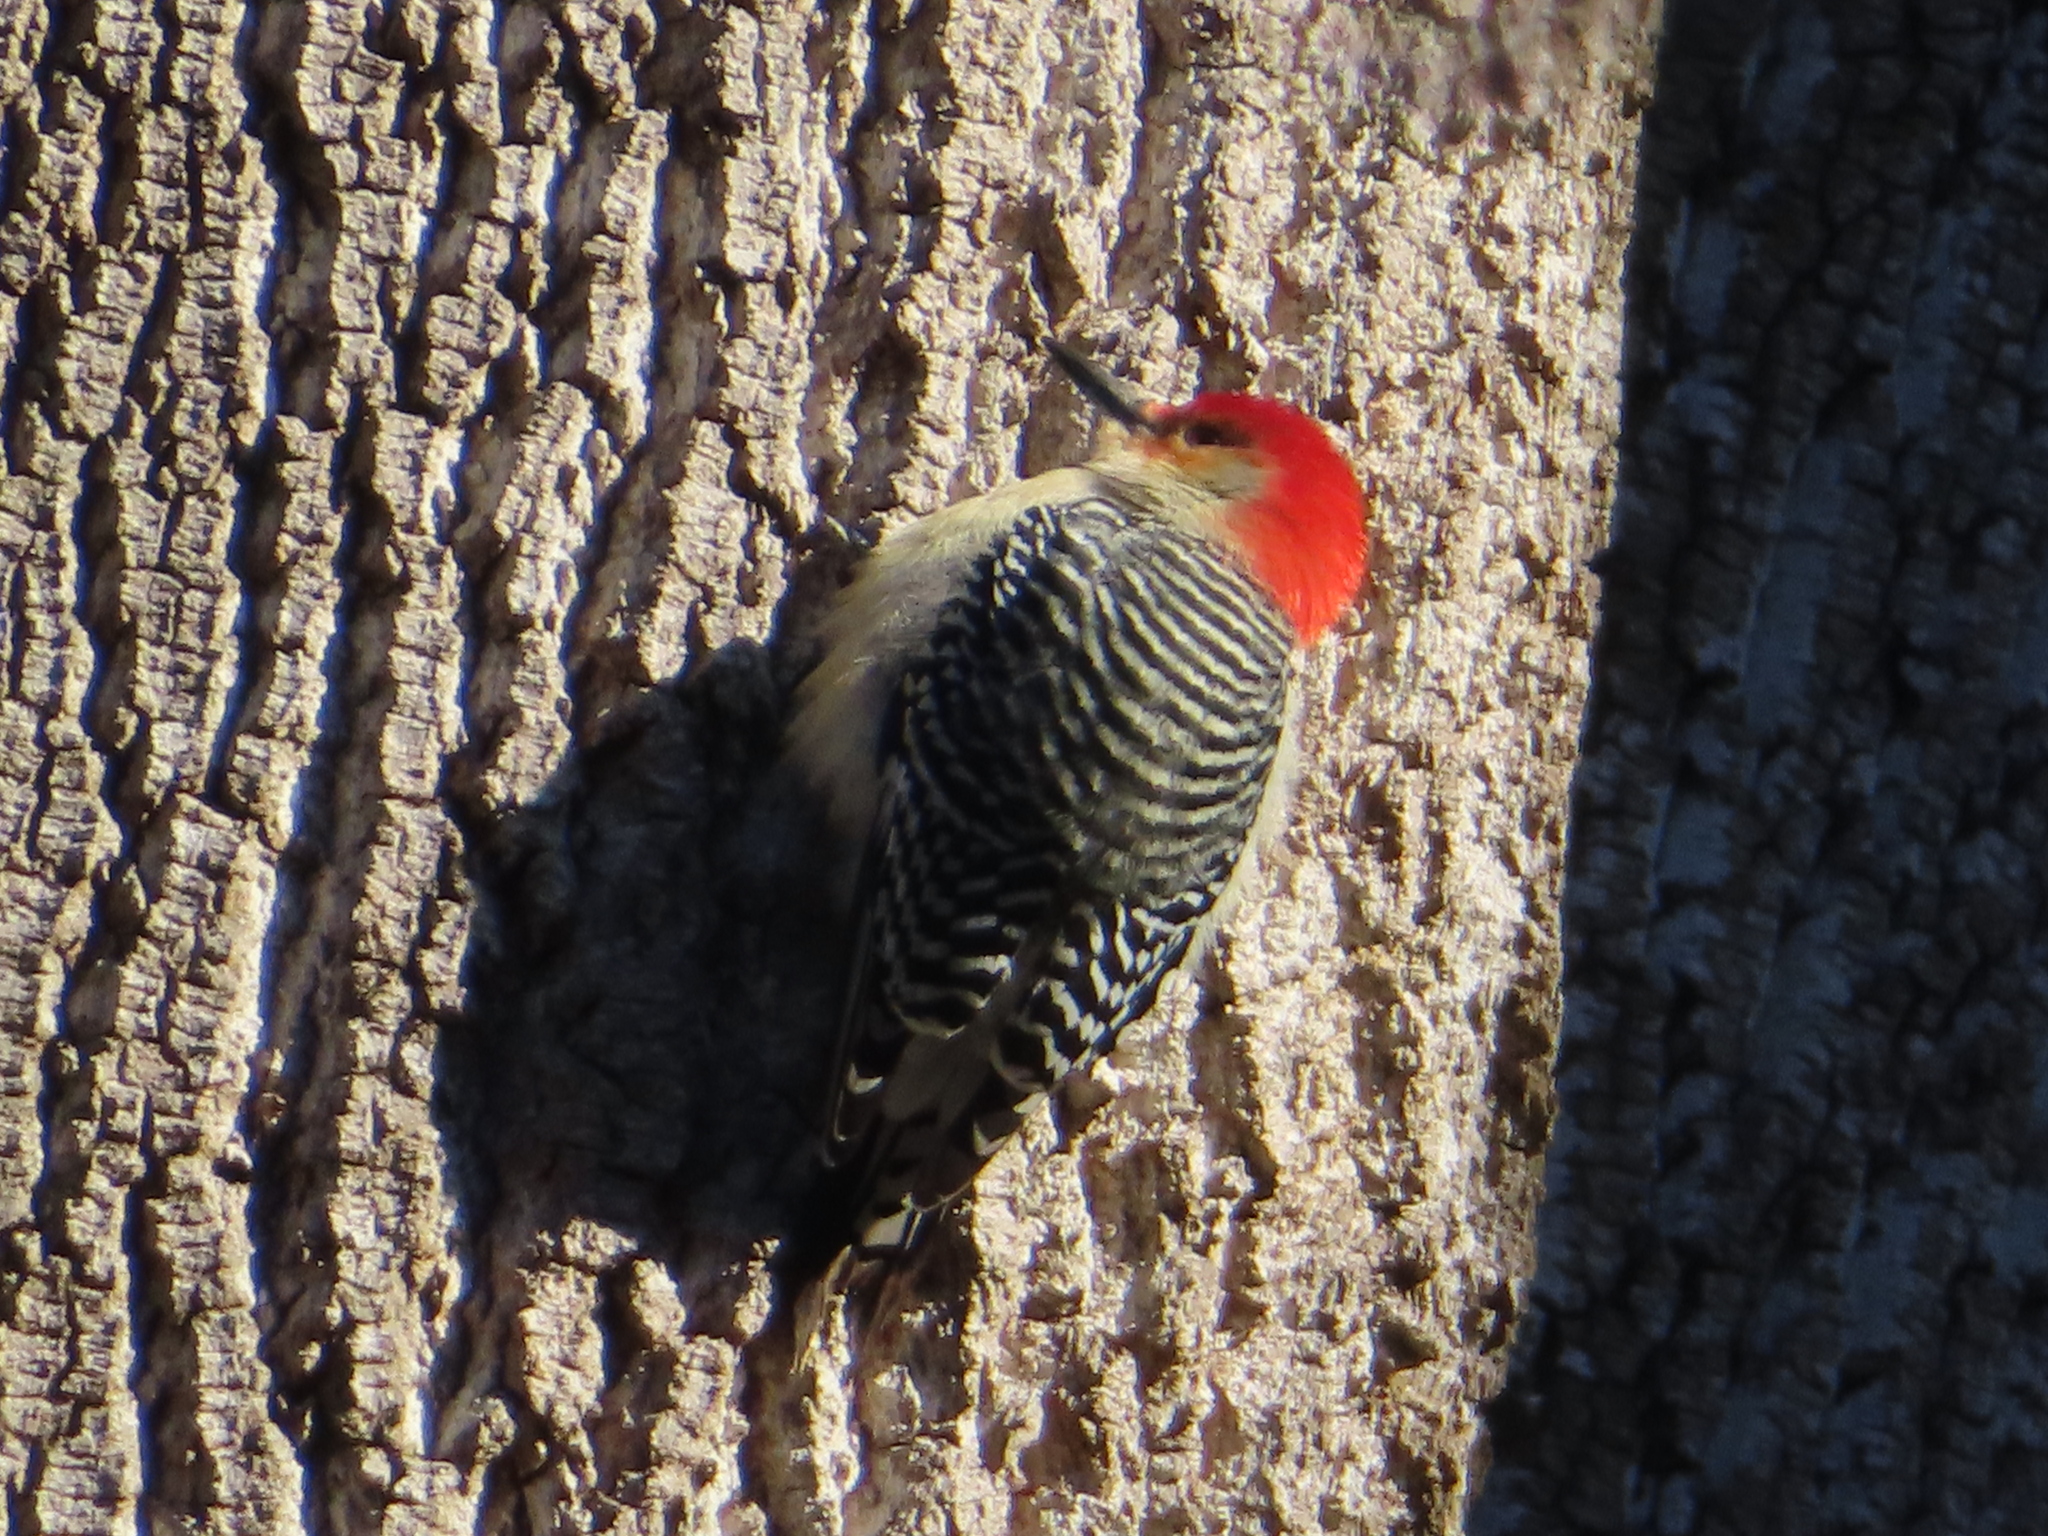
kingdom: Animalia
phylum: Chordata
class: Aves
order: Piciformes
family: Picidae
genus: Melanerpes
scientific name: Melanerpes carolinus
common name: Red-bellied woodpecker
